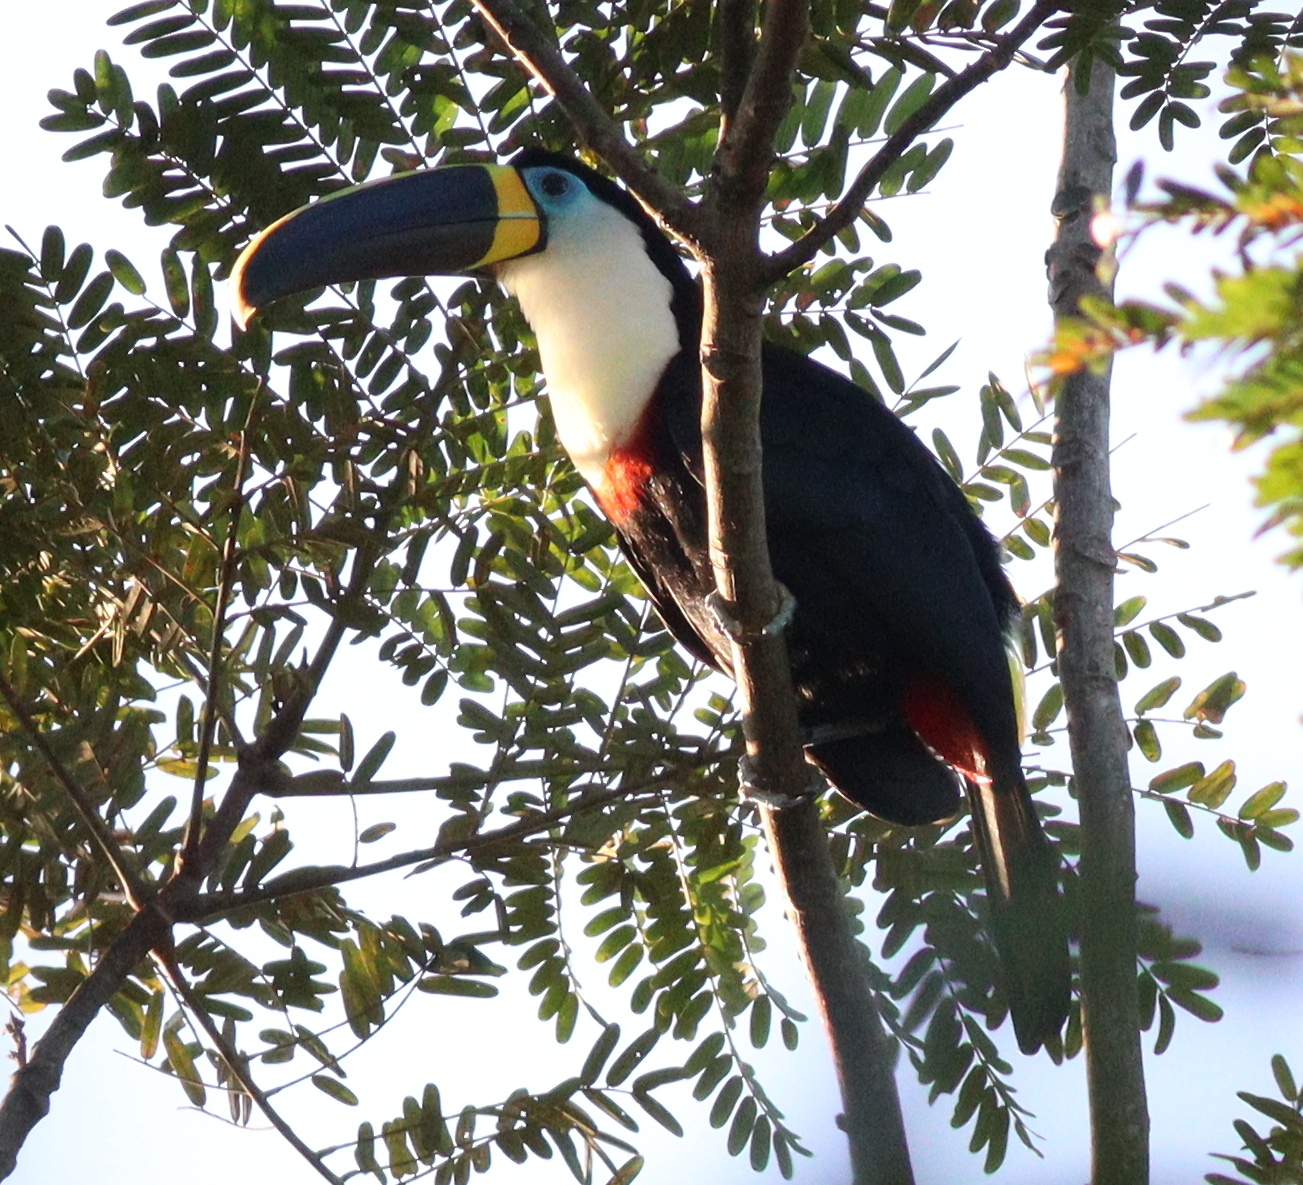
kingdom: Animalia
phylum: Chordata
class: Aves
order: Piciformes
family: Ramphastidae
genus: Ramphastos
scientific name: Ramphastos vitellinus
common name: Channel-billed toucan
